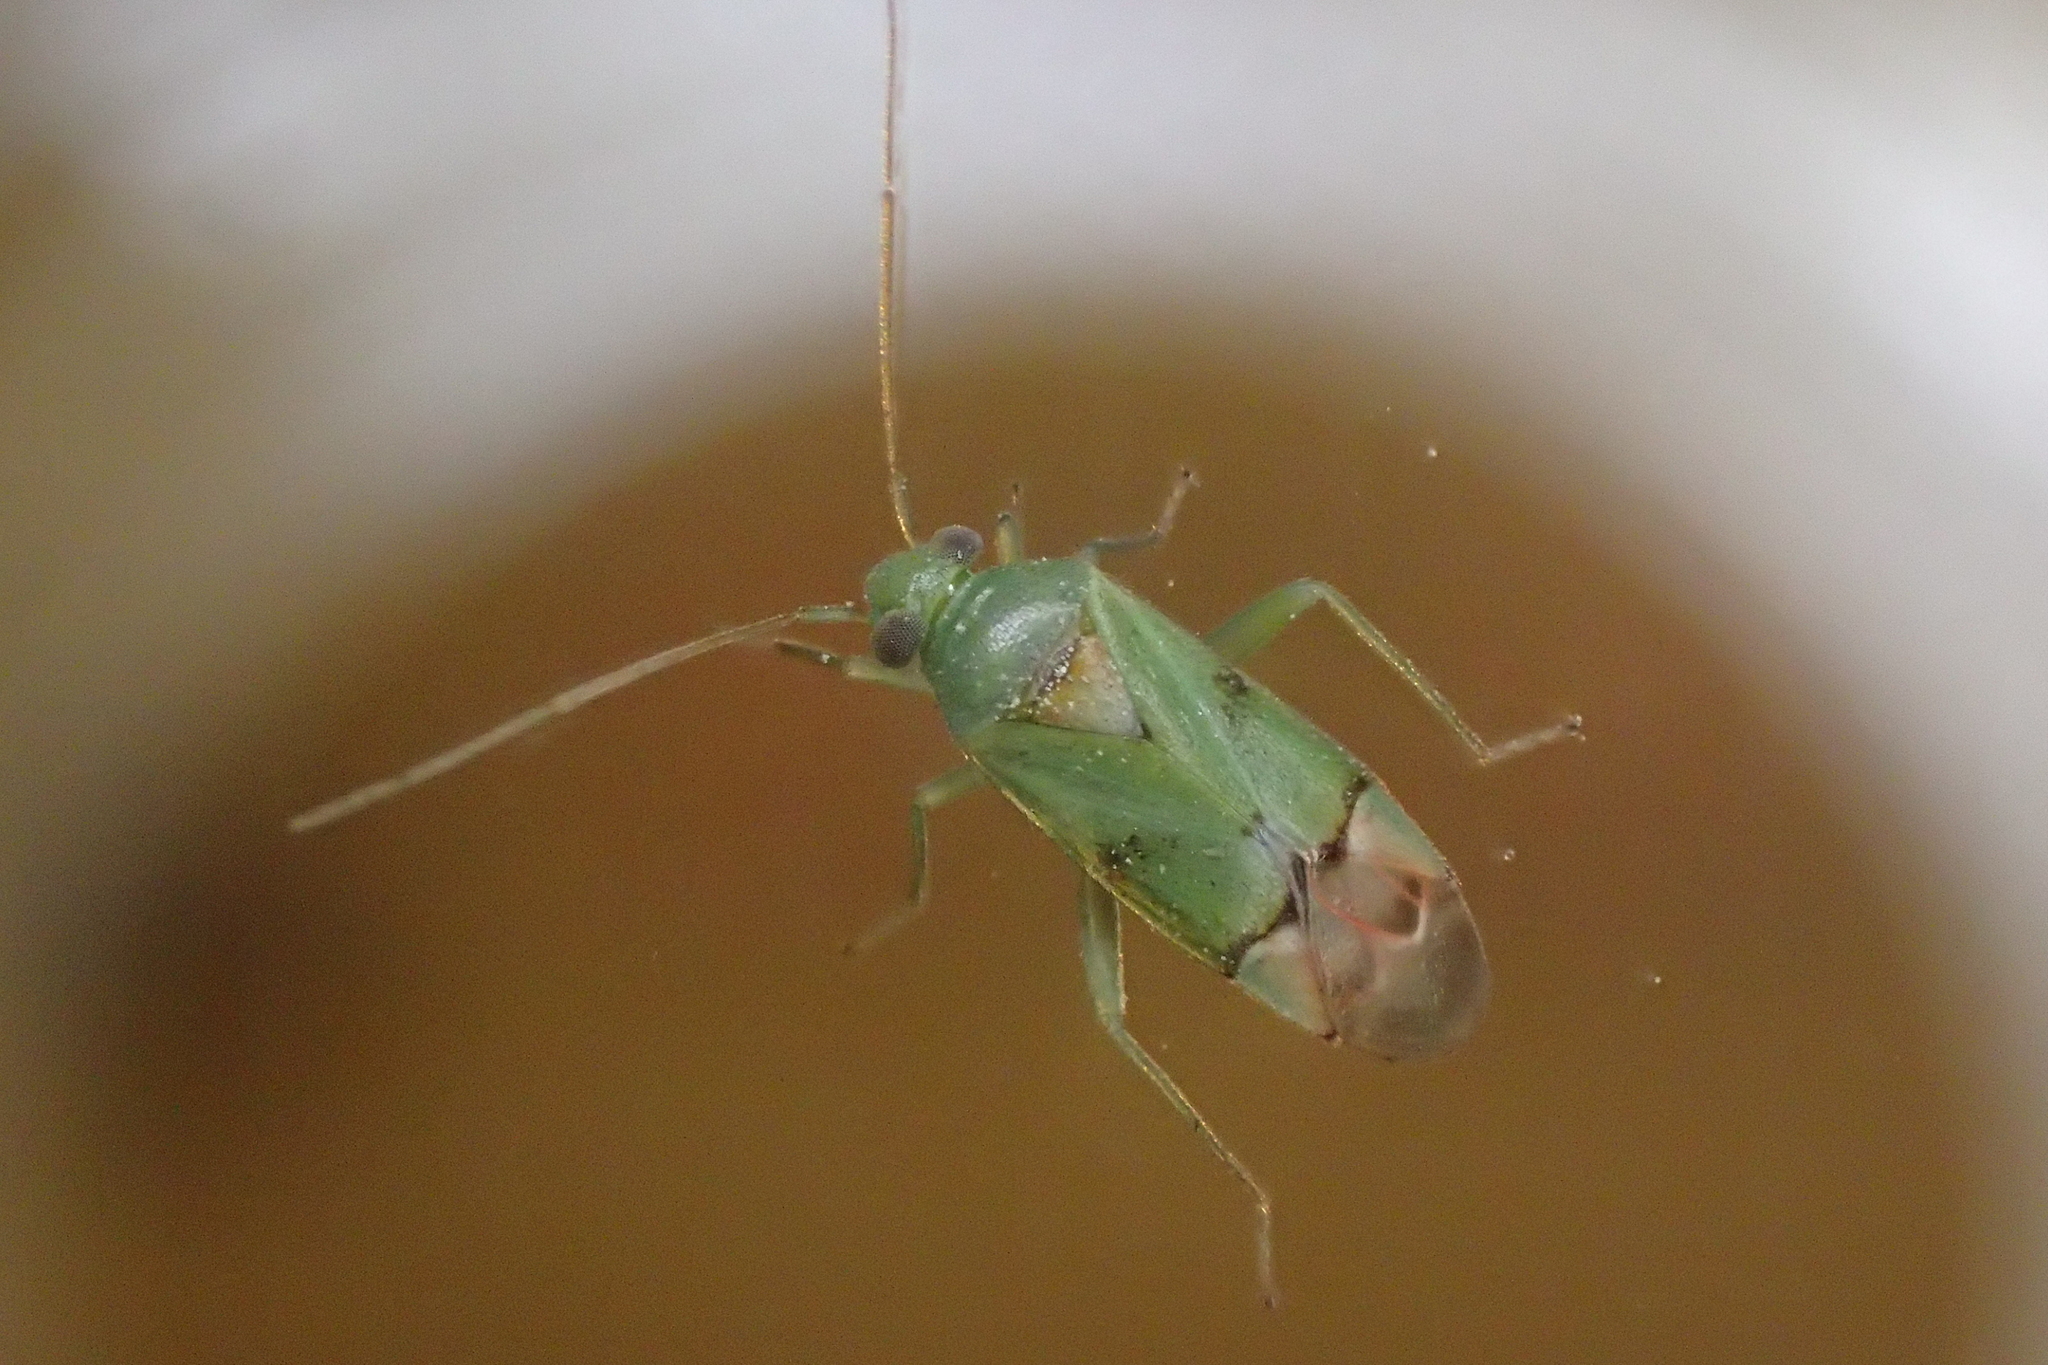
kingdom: Animalia
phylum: Arthropoda
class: Insecta
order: Hemiptera
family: Miridae
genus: Dichrooscytus
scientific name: Dichrooscytus cyprius
